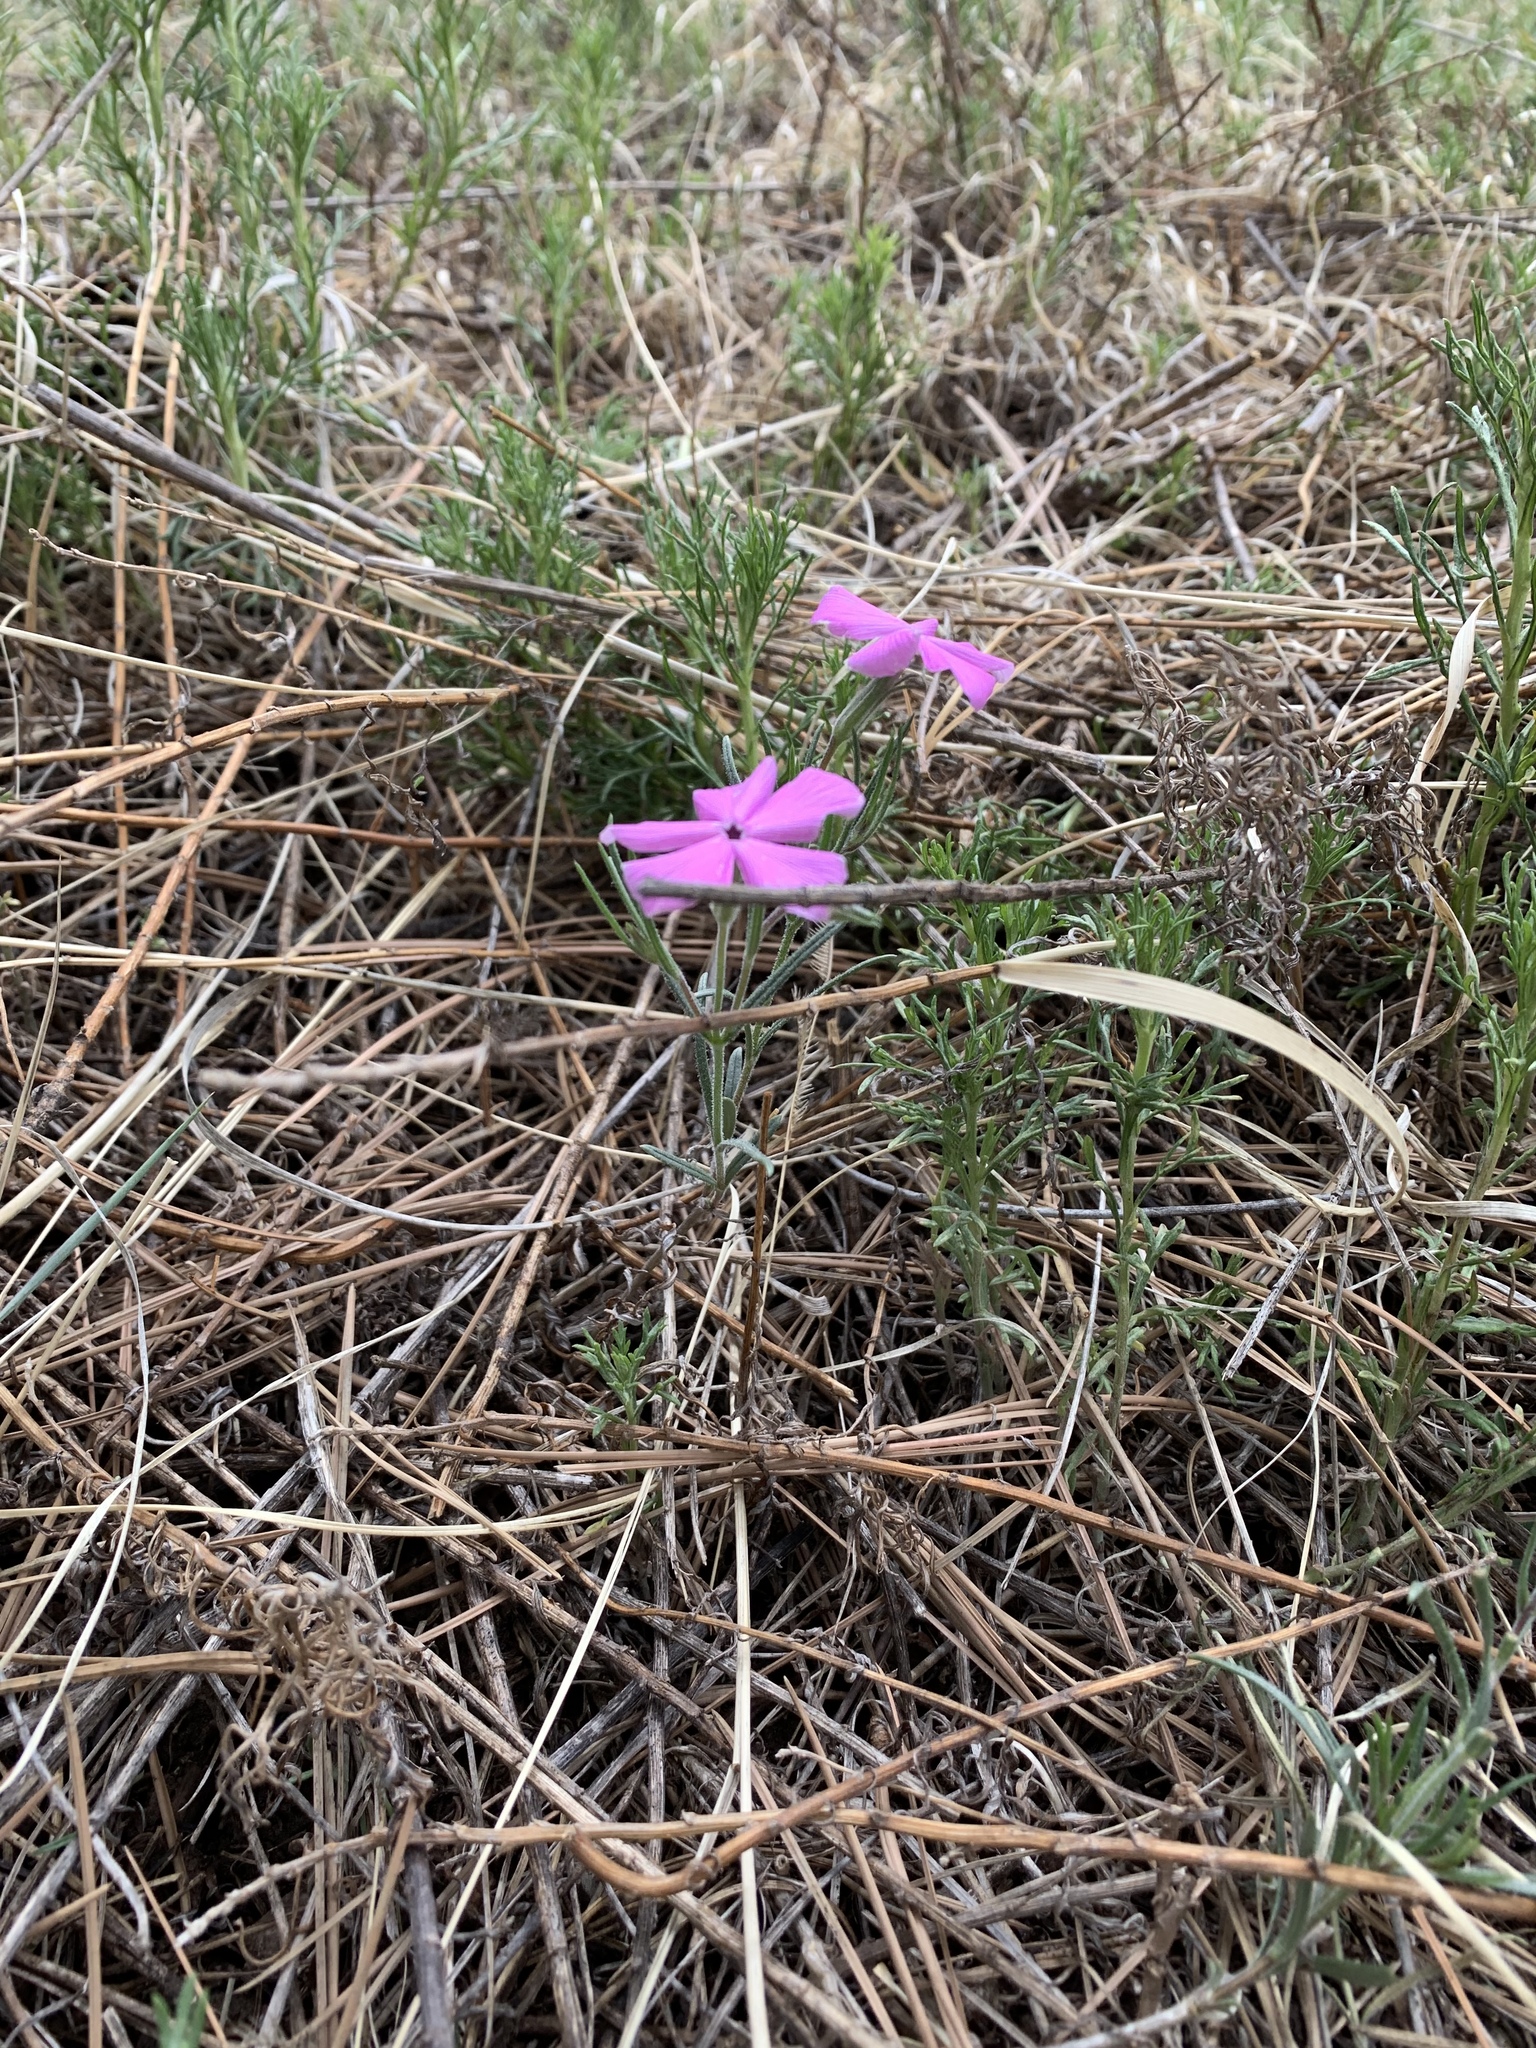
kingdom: Plantae
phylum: Tracheophyta
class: Magnoliopsida
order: Ericales
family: Polemoniaceae
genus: Phlox
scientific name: Phlox nana
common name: Santa fe phlox
